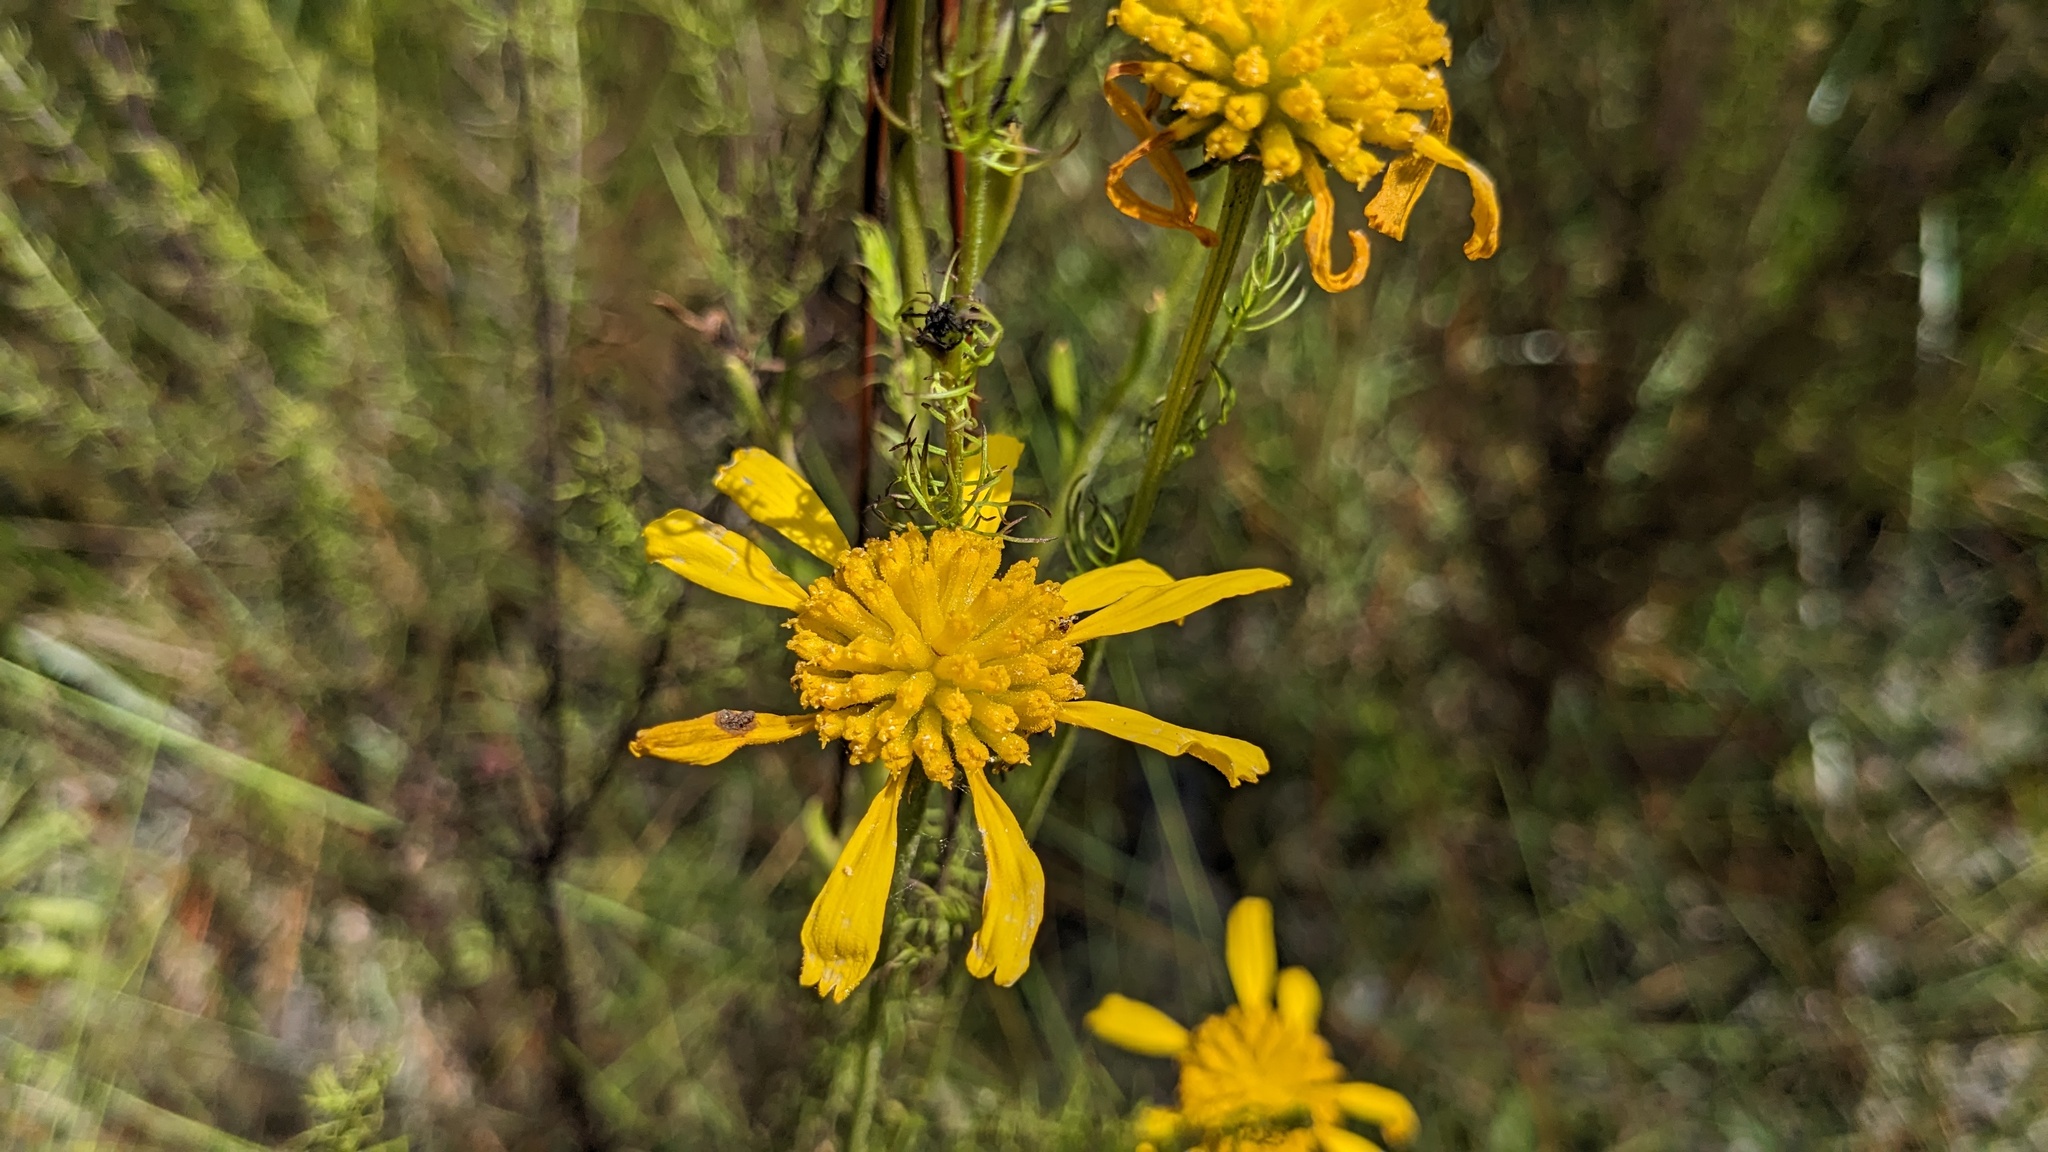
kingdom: Plantae
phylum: Tracheophyta
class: Magnoliopsida
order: Asterales
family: Asteraceae
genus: Balduina
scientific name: Balduina uniflora
